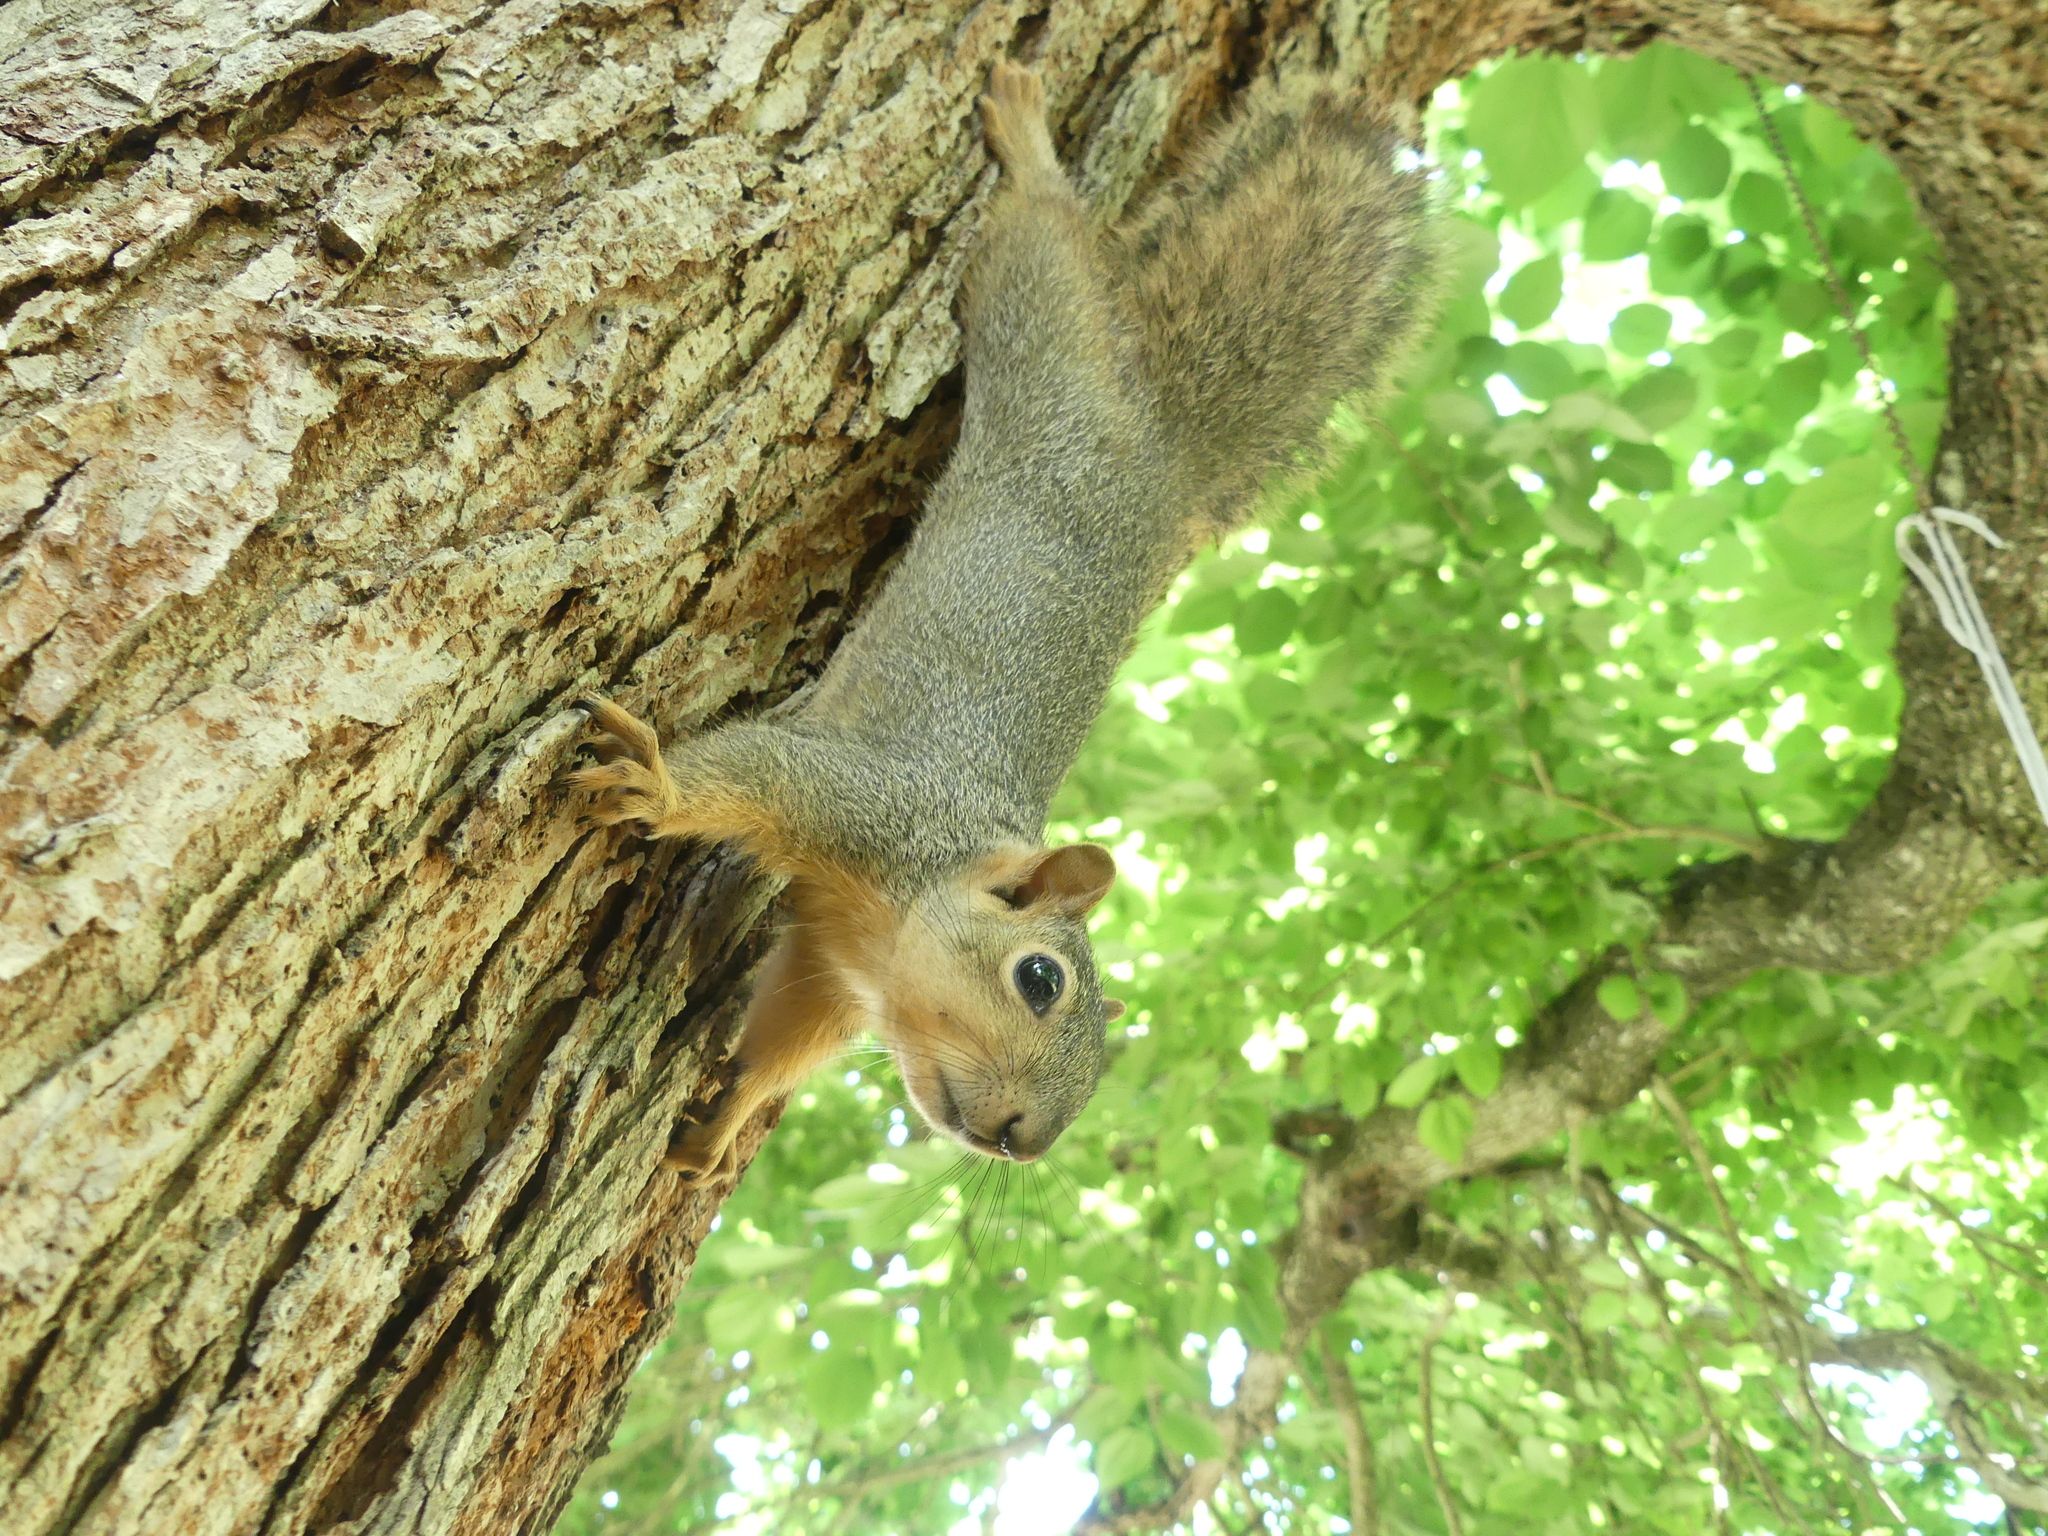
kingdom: Animalia
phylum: Chordata
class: Mammalia
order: Rodentia
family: Sciuridae
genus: Sciurus
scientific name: Sciurus niger
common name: Fox squirrel
